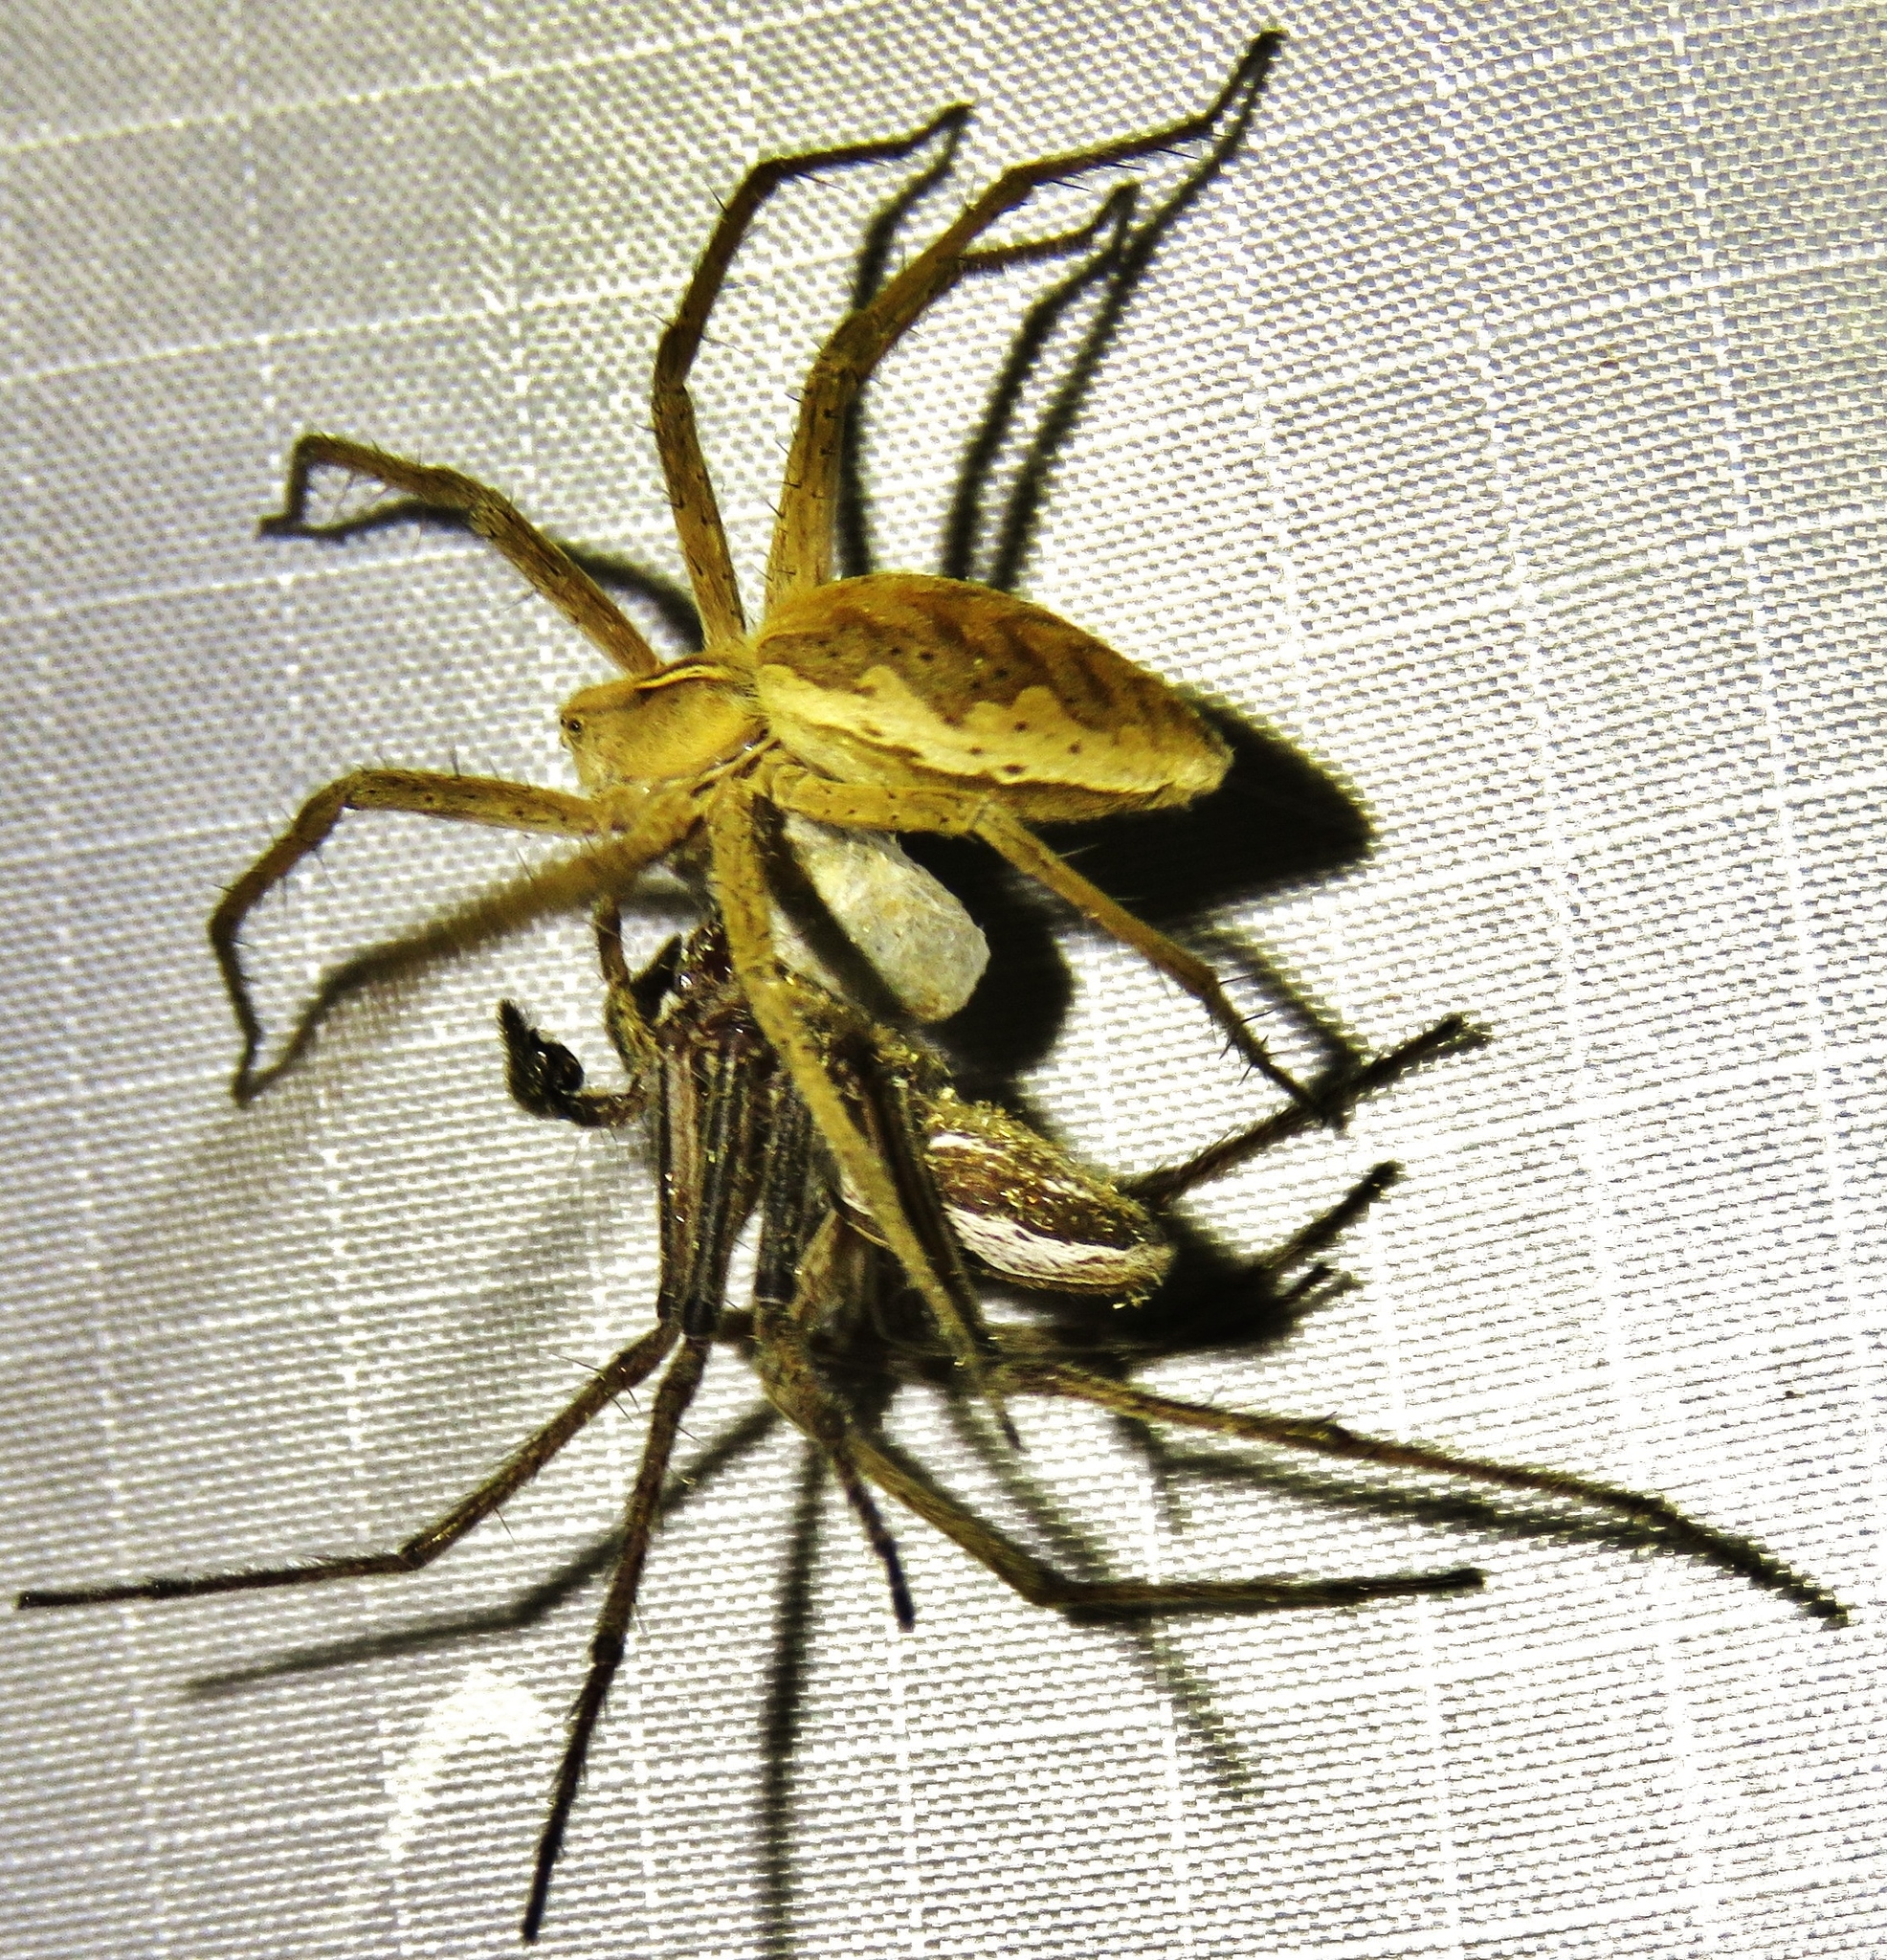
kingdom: Animalia
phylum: Arthropoda
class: Arachnida
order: Araneae
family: Pisauridae
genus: Pisaura
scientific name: Pisaura mirabilis
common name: Tent spider
